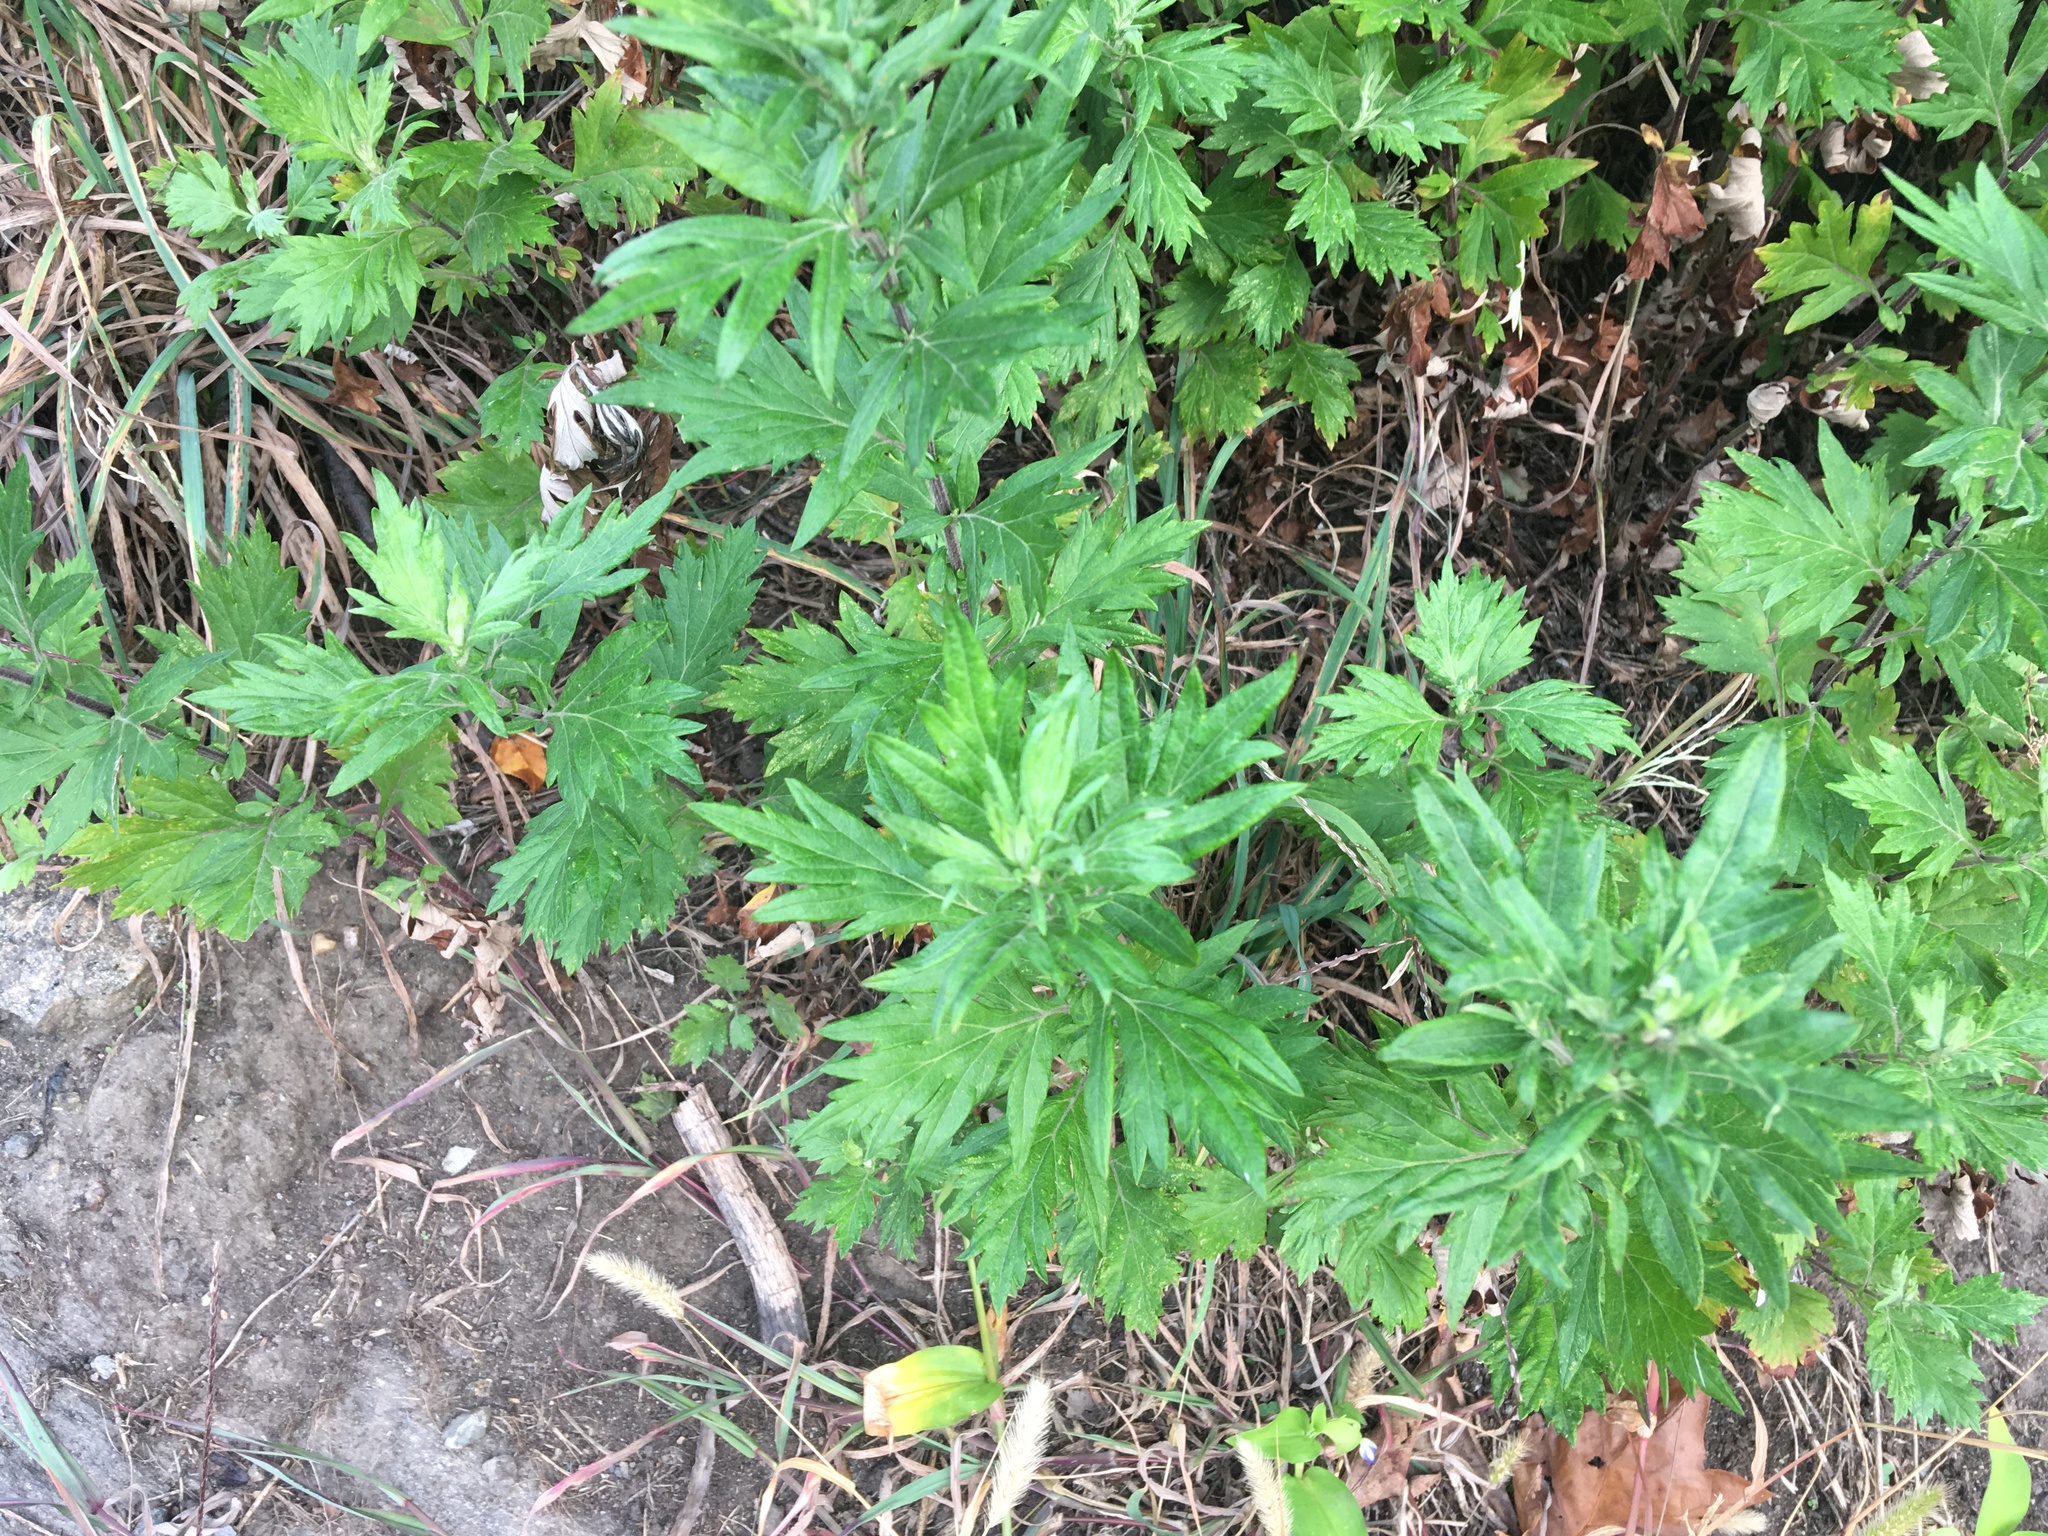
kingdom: Plantae
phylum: Tracheophyta
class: Magnoliopsida
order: Asterales
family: Asteraceae
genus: Artemisia
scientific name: Artemisia vulgaris
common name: Mugwort
